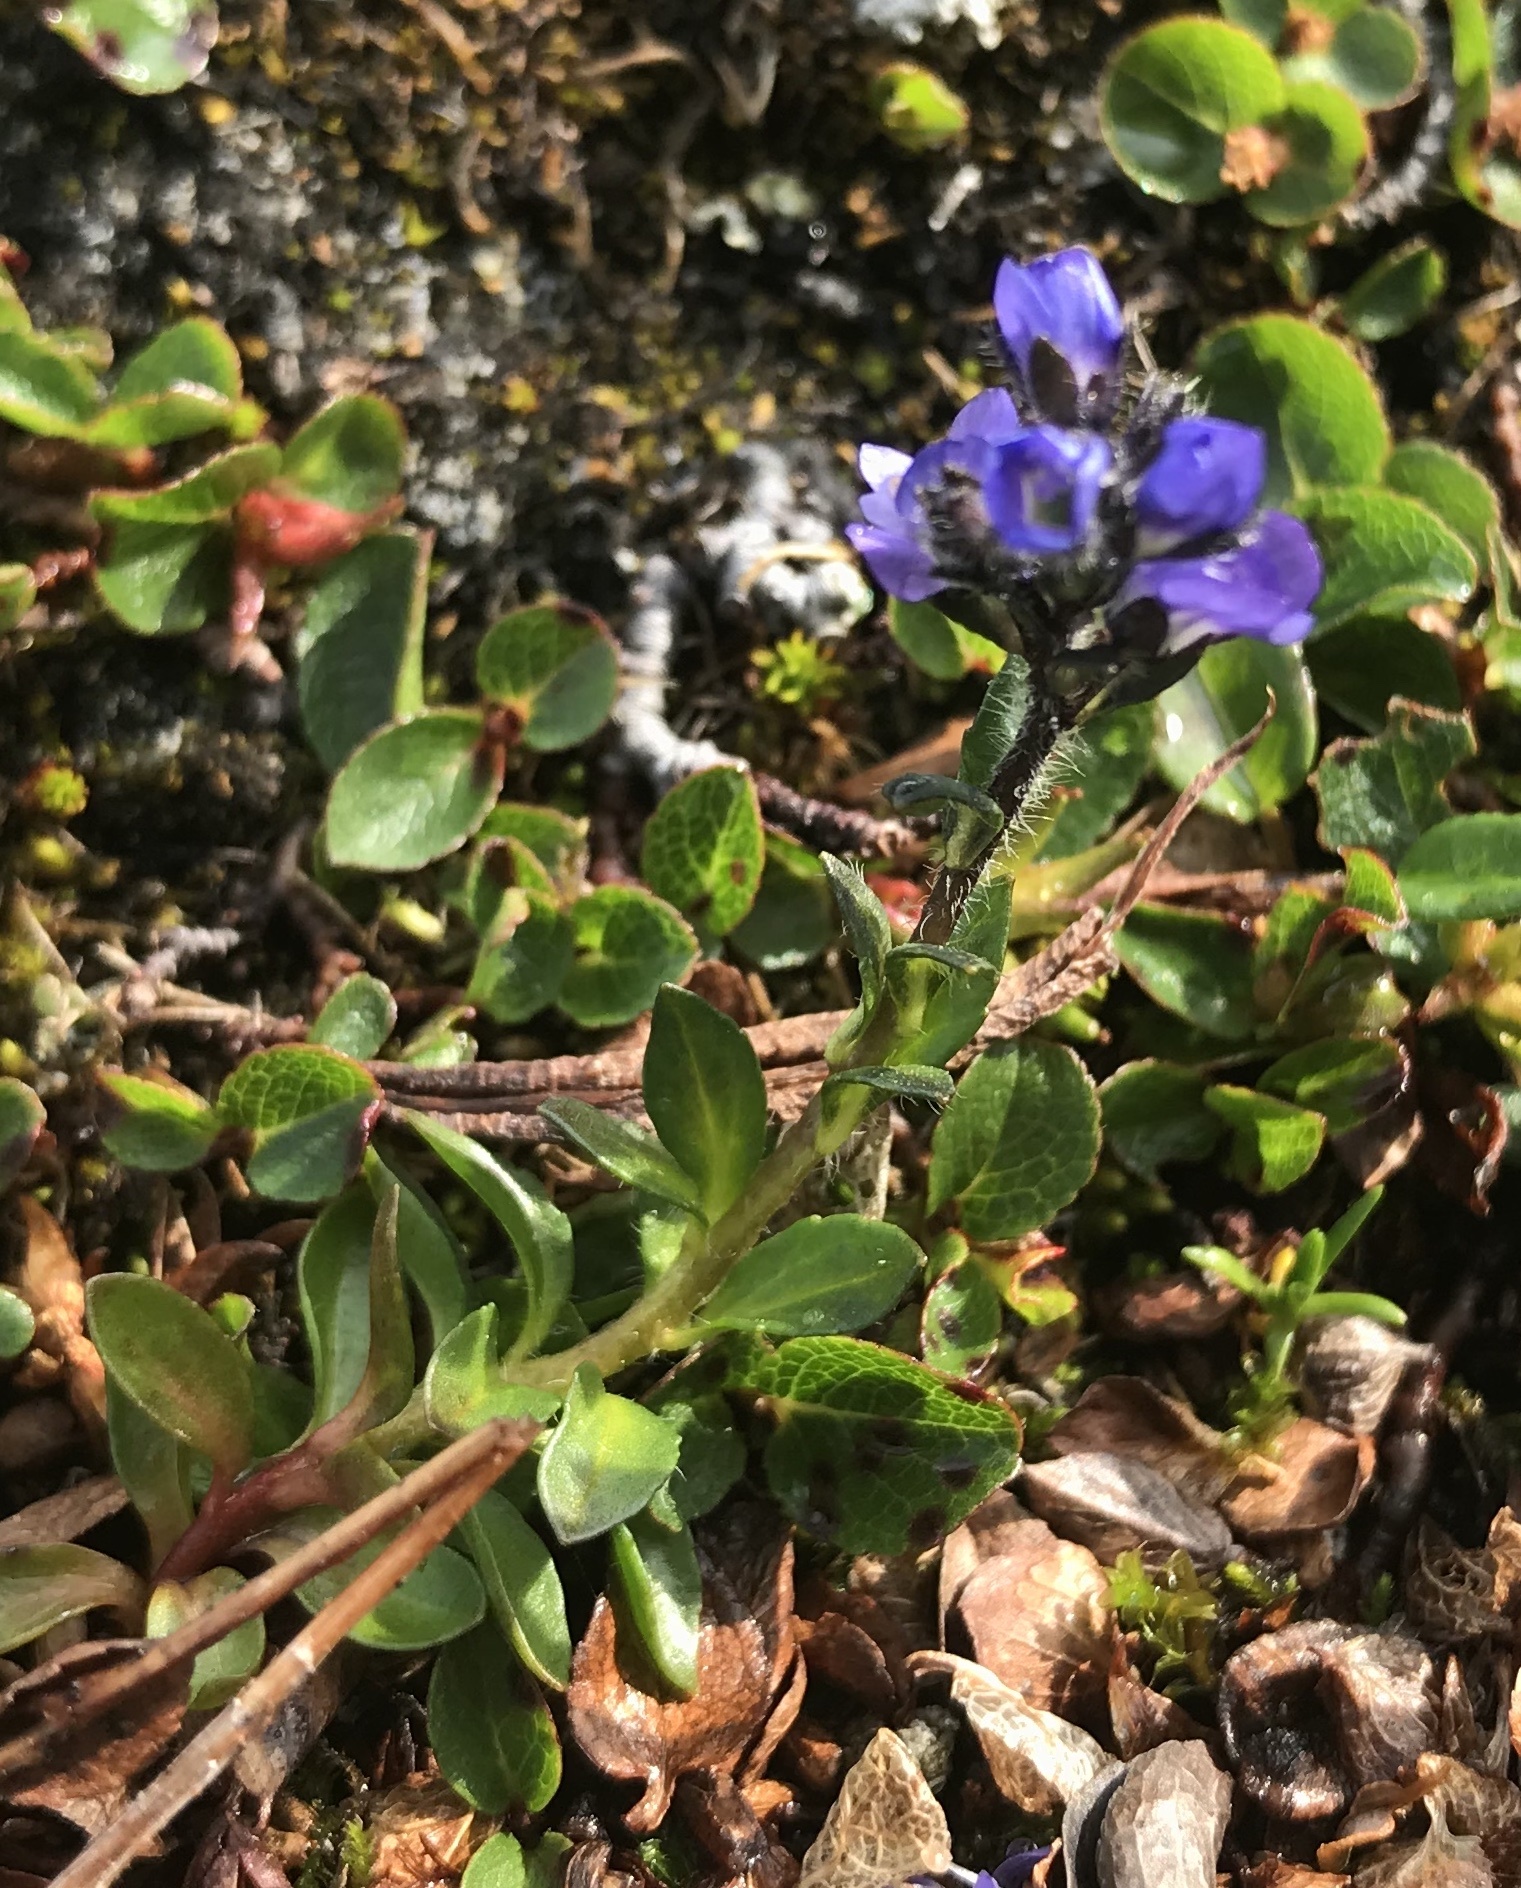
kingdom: Plantae
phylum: Tracheophyta
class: Magnoliopsida
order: Lamiales
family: Plantaginaceae
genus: Veronica
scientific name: Veronica alpina
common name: Alpine speedwell
